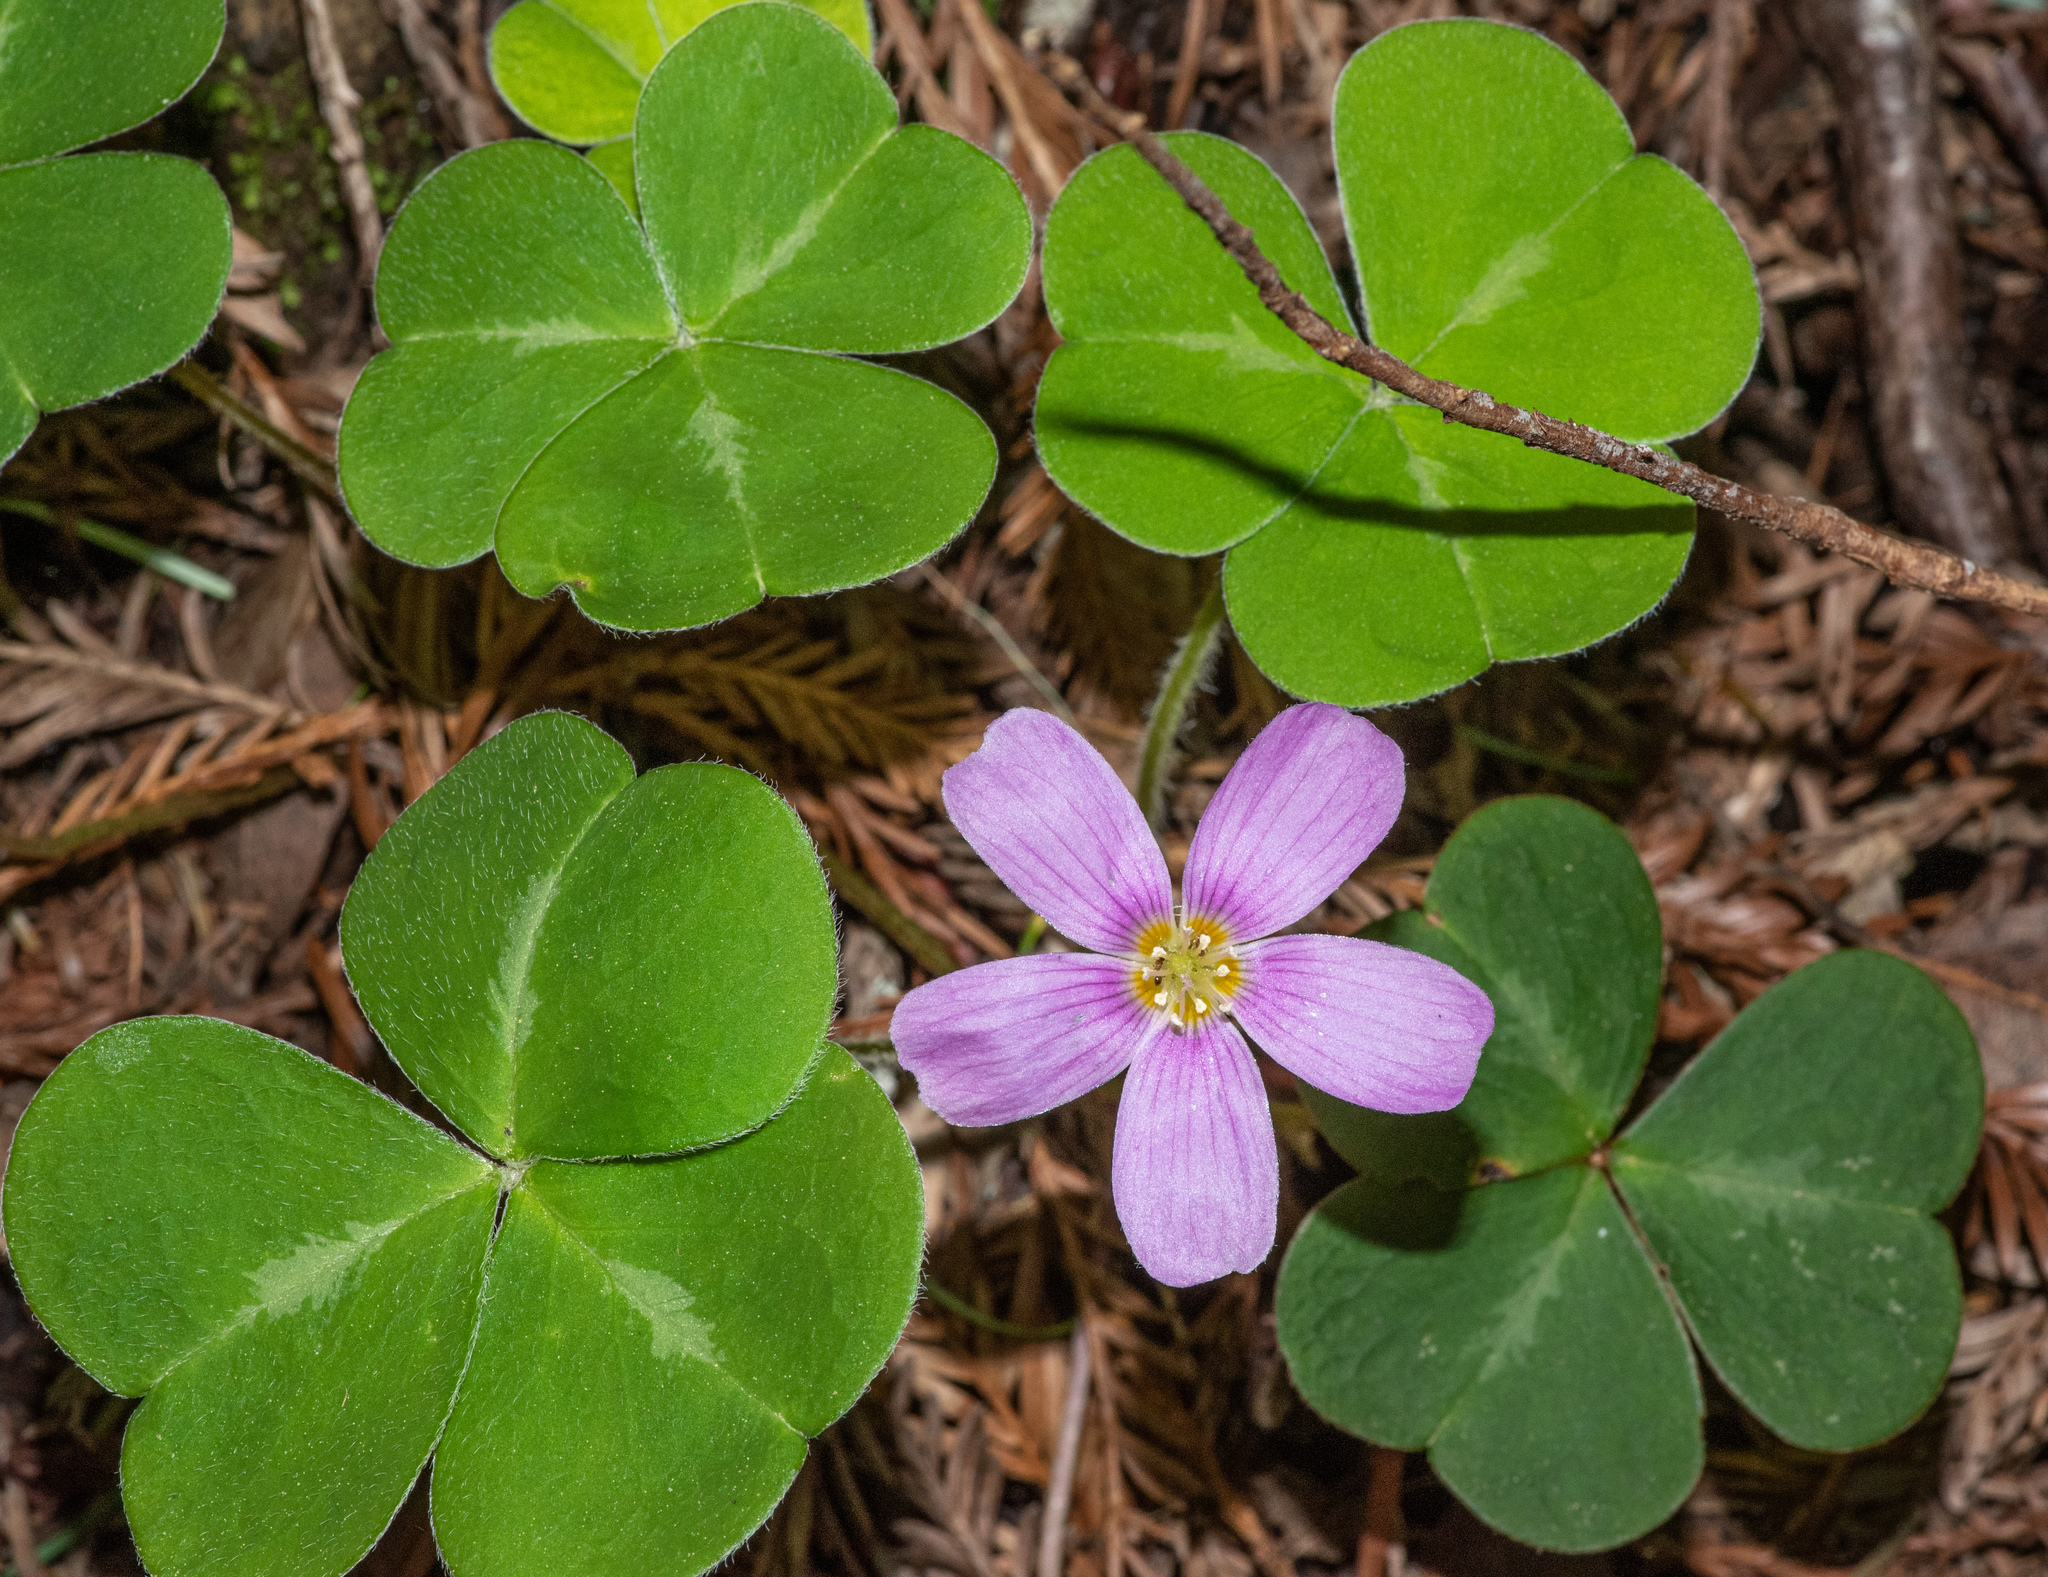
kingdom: Plantae
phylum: Tracheophyta
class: Magnoliopsida
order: Oxalidales
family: Oxalidaceae
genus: Oxalis
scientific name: Oxalis oregana
